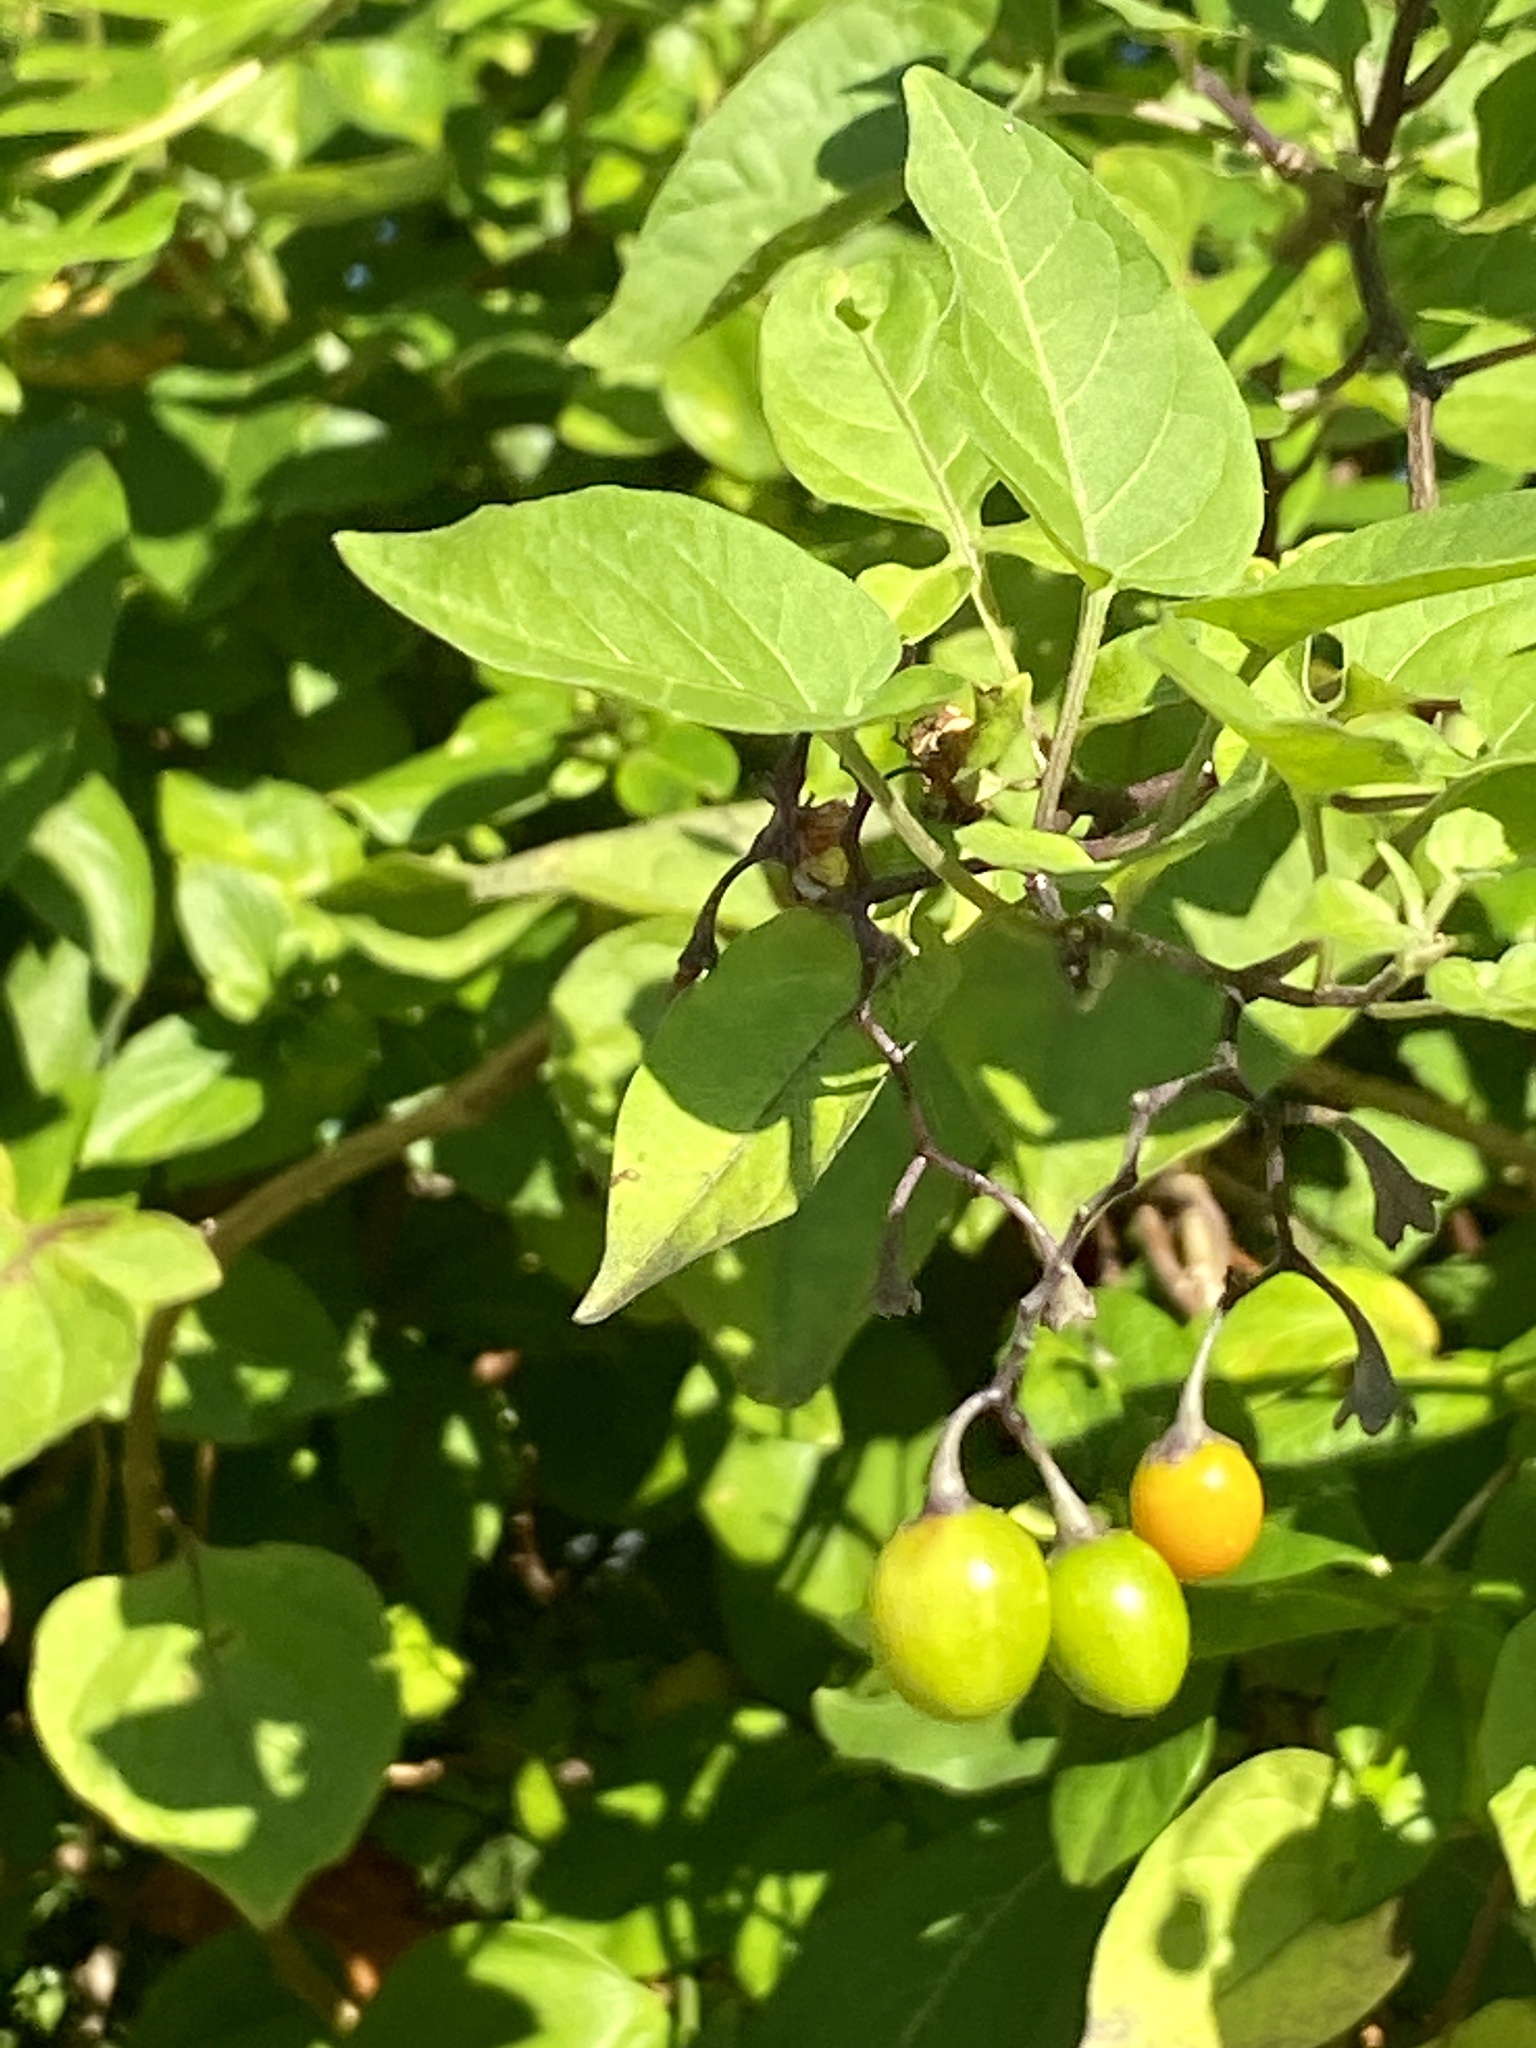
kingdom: Plantae
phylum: Tracheophyta
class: Magnoliopsida
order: Solanales
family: Solanaceae
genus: Solanum
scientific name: Solanum dulcamara
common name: Climbing nightshade
